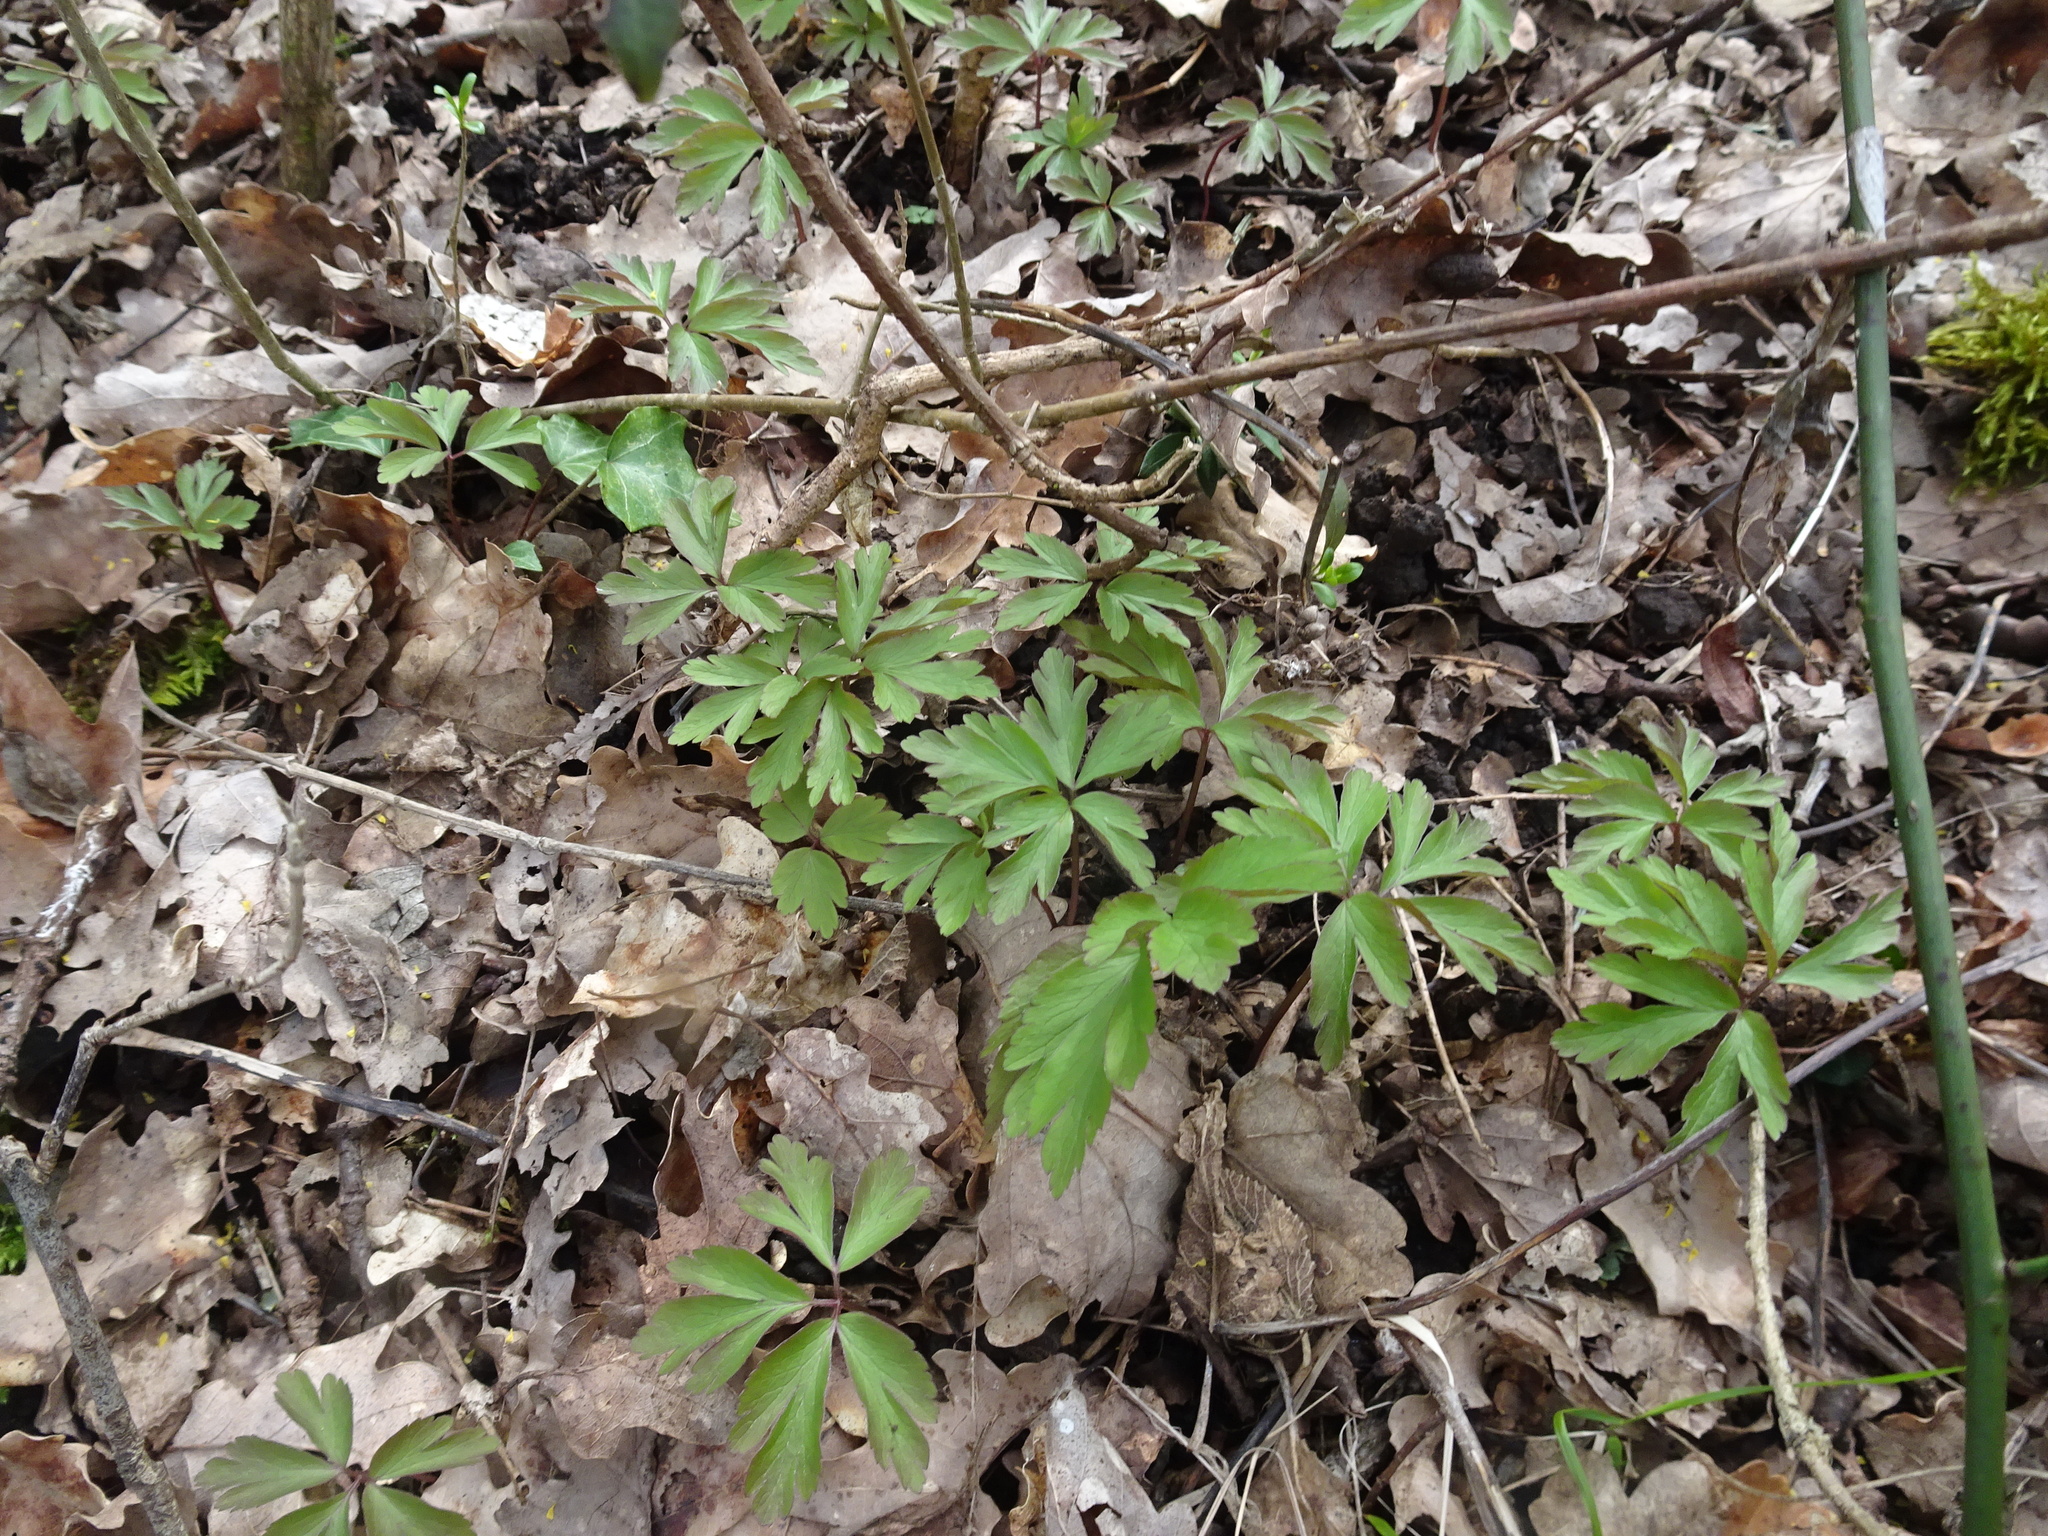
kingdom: Plantae
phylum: Tracheophyta
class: Magnoliopsida
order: Ranunculales
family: Ranunculaceae
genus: Anemone
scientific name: Anemone nemorosa
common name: Wood anemone
